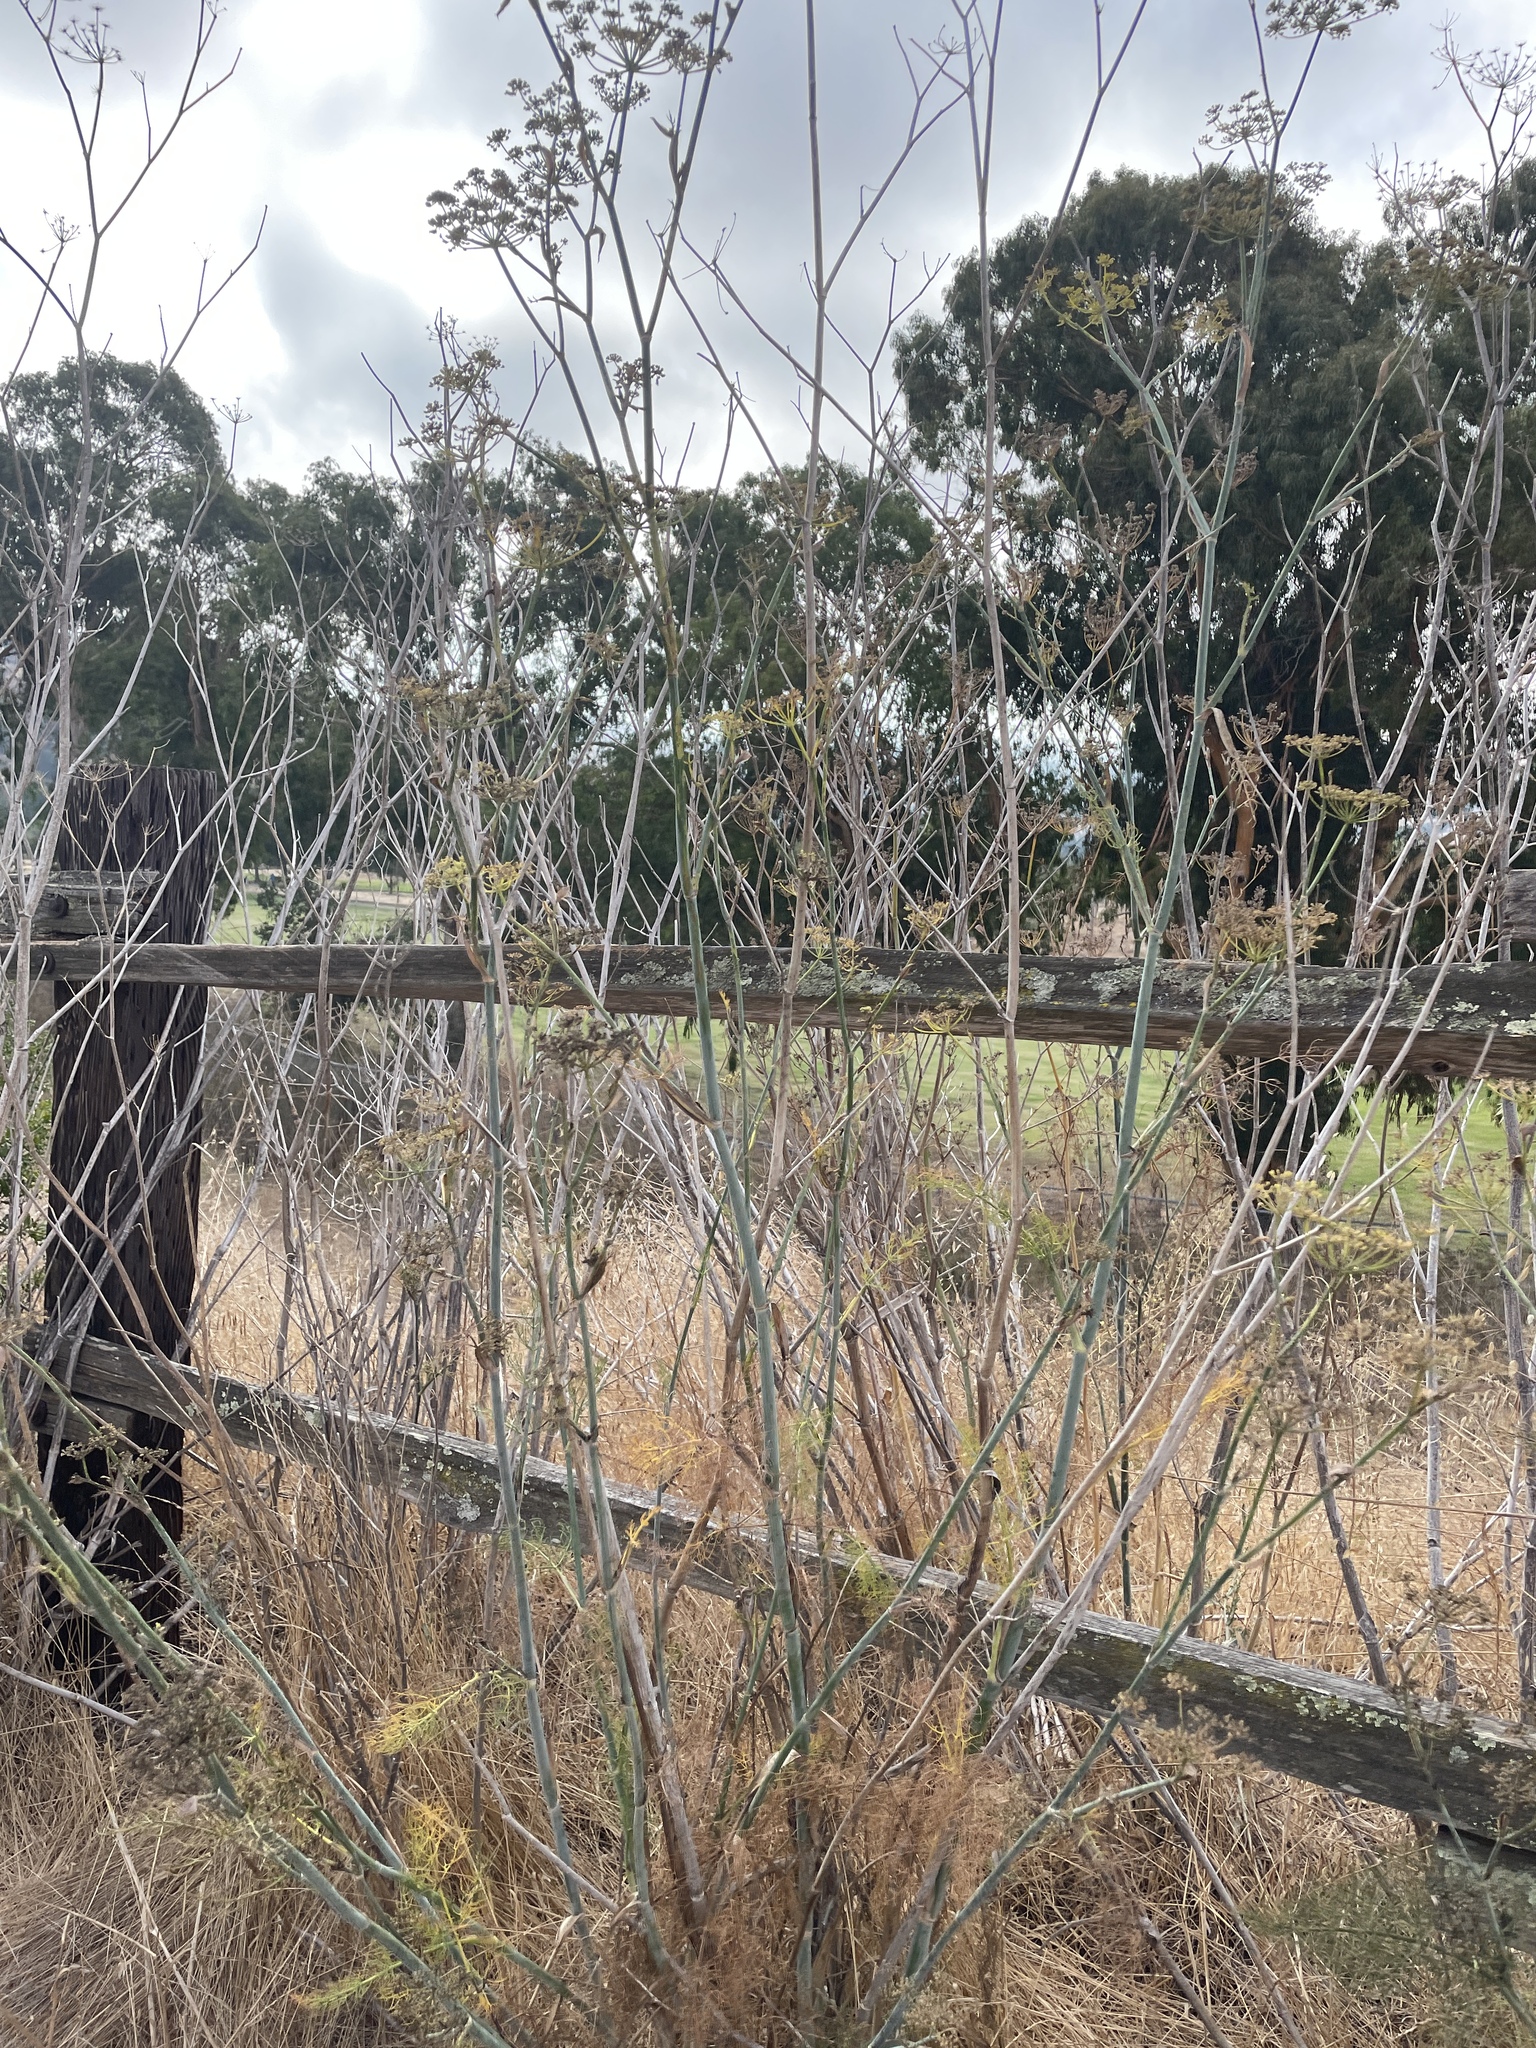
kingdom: Plantae
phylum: Tracheophyta
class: Magnoliopsida
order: Apiales
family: Apiaceae
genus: Foeniculum
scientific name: Foeniculum vulgare
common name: Fennel
